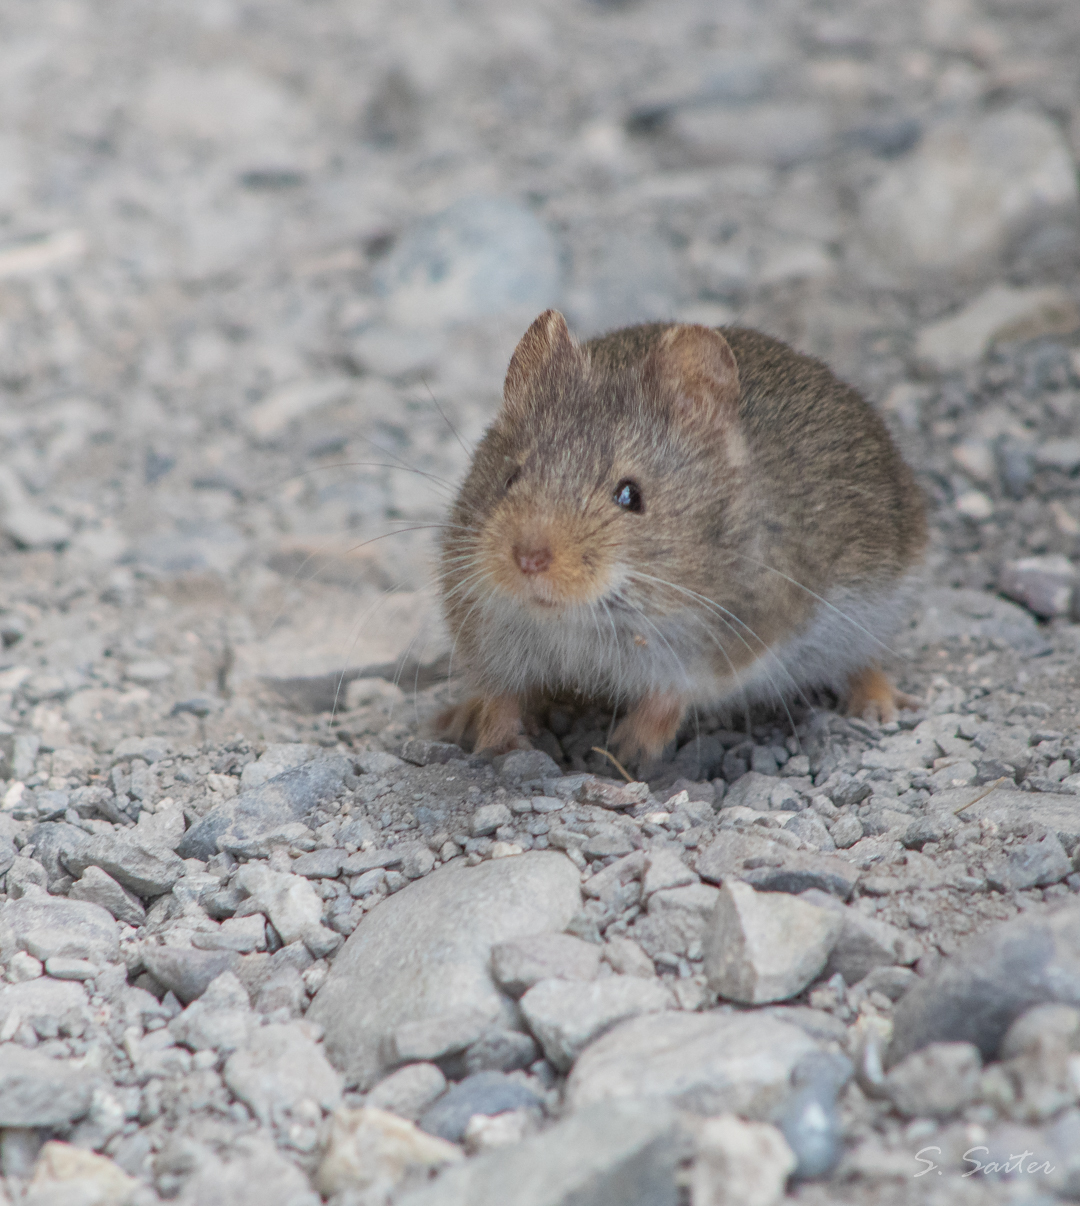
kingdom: Animalia
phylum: Chordata
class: Mammalia
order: Rodentia
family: Cricetidae
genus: Abrothrix
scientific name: Abrothrix olivaceus
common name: Olive-colored akodont
